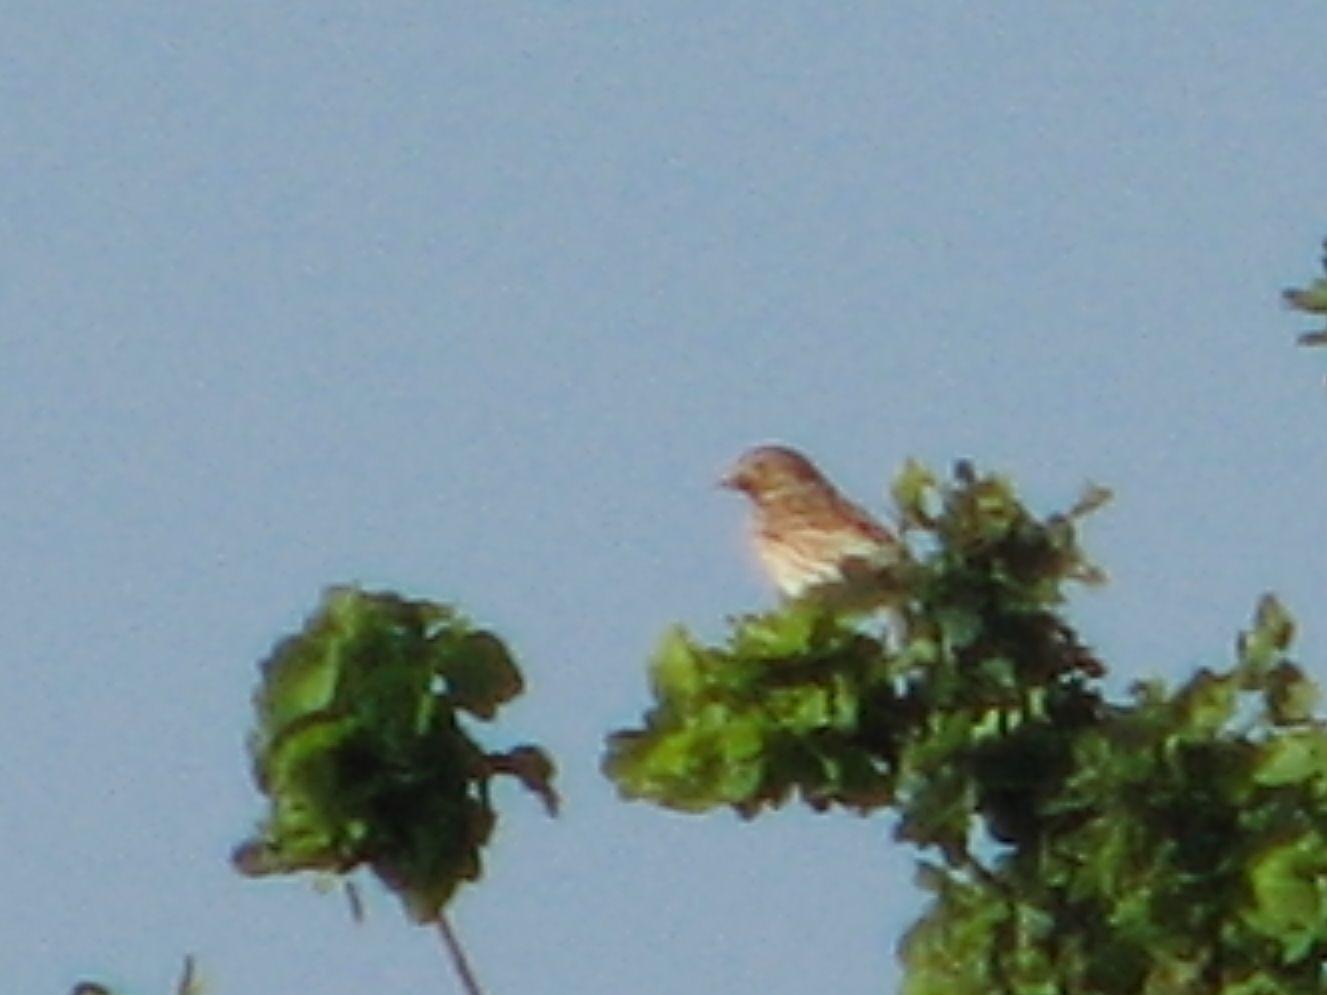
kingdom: Animalia
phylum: Chordata
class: Aves
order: Passeriformes
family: Fringillidae
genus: Linaria
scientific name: Linaria cannabina
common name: Common linnet
